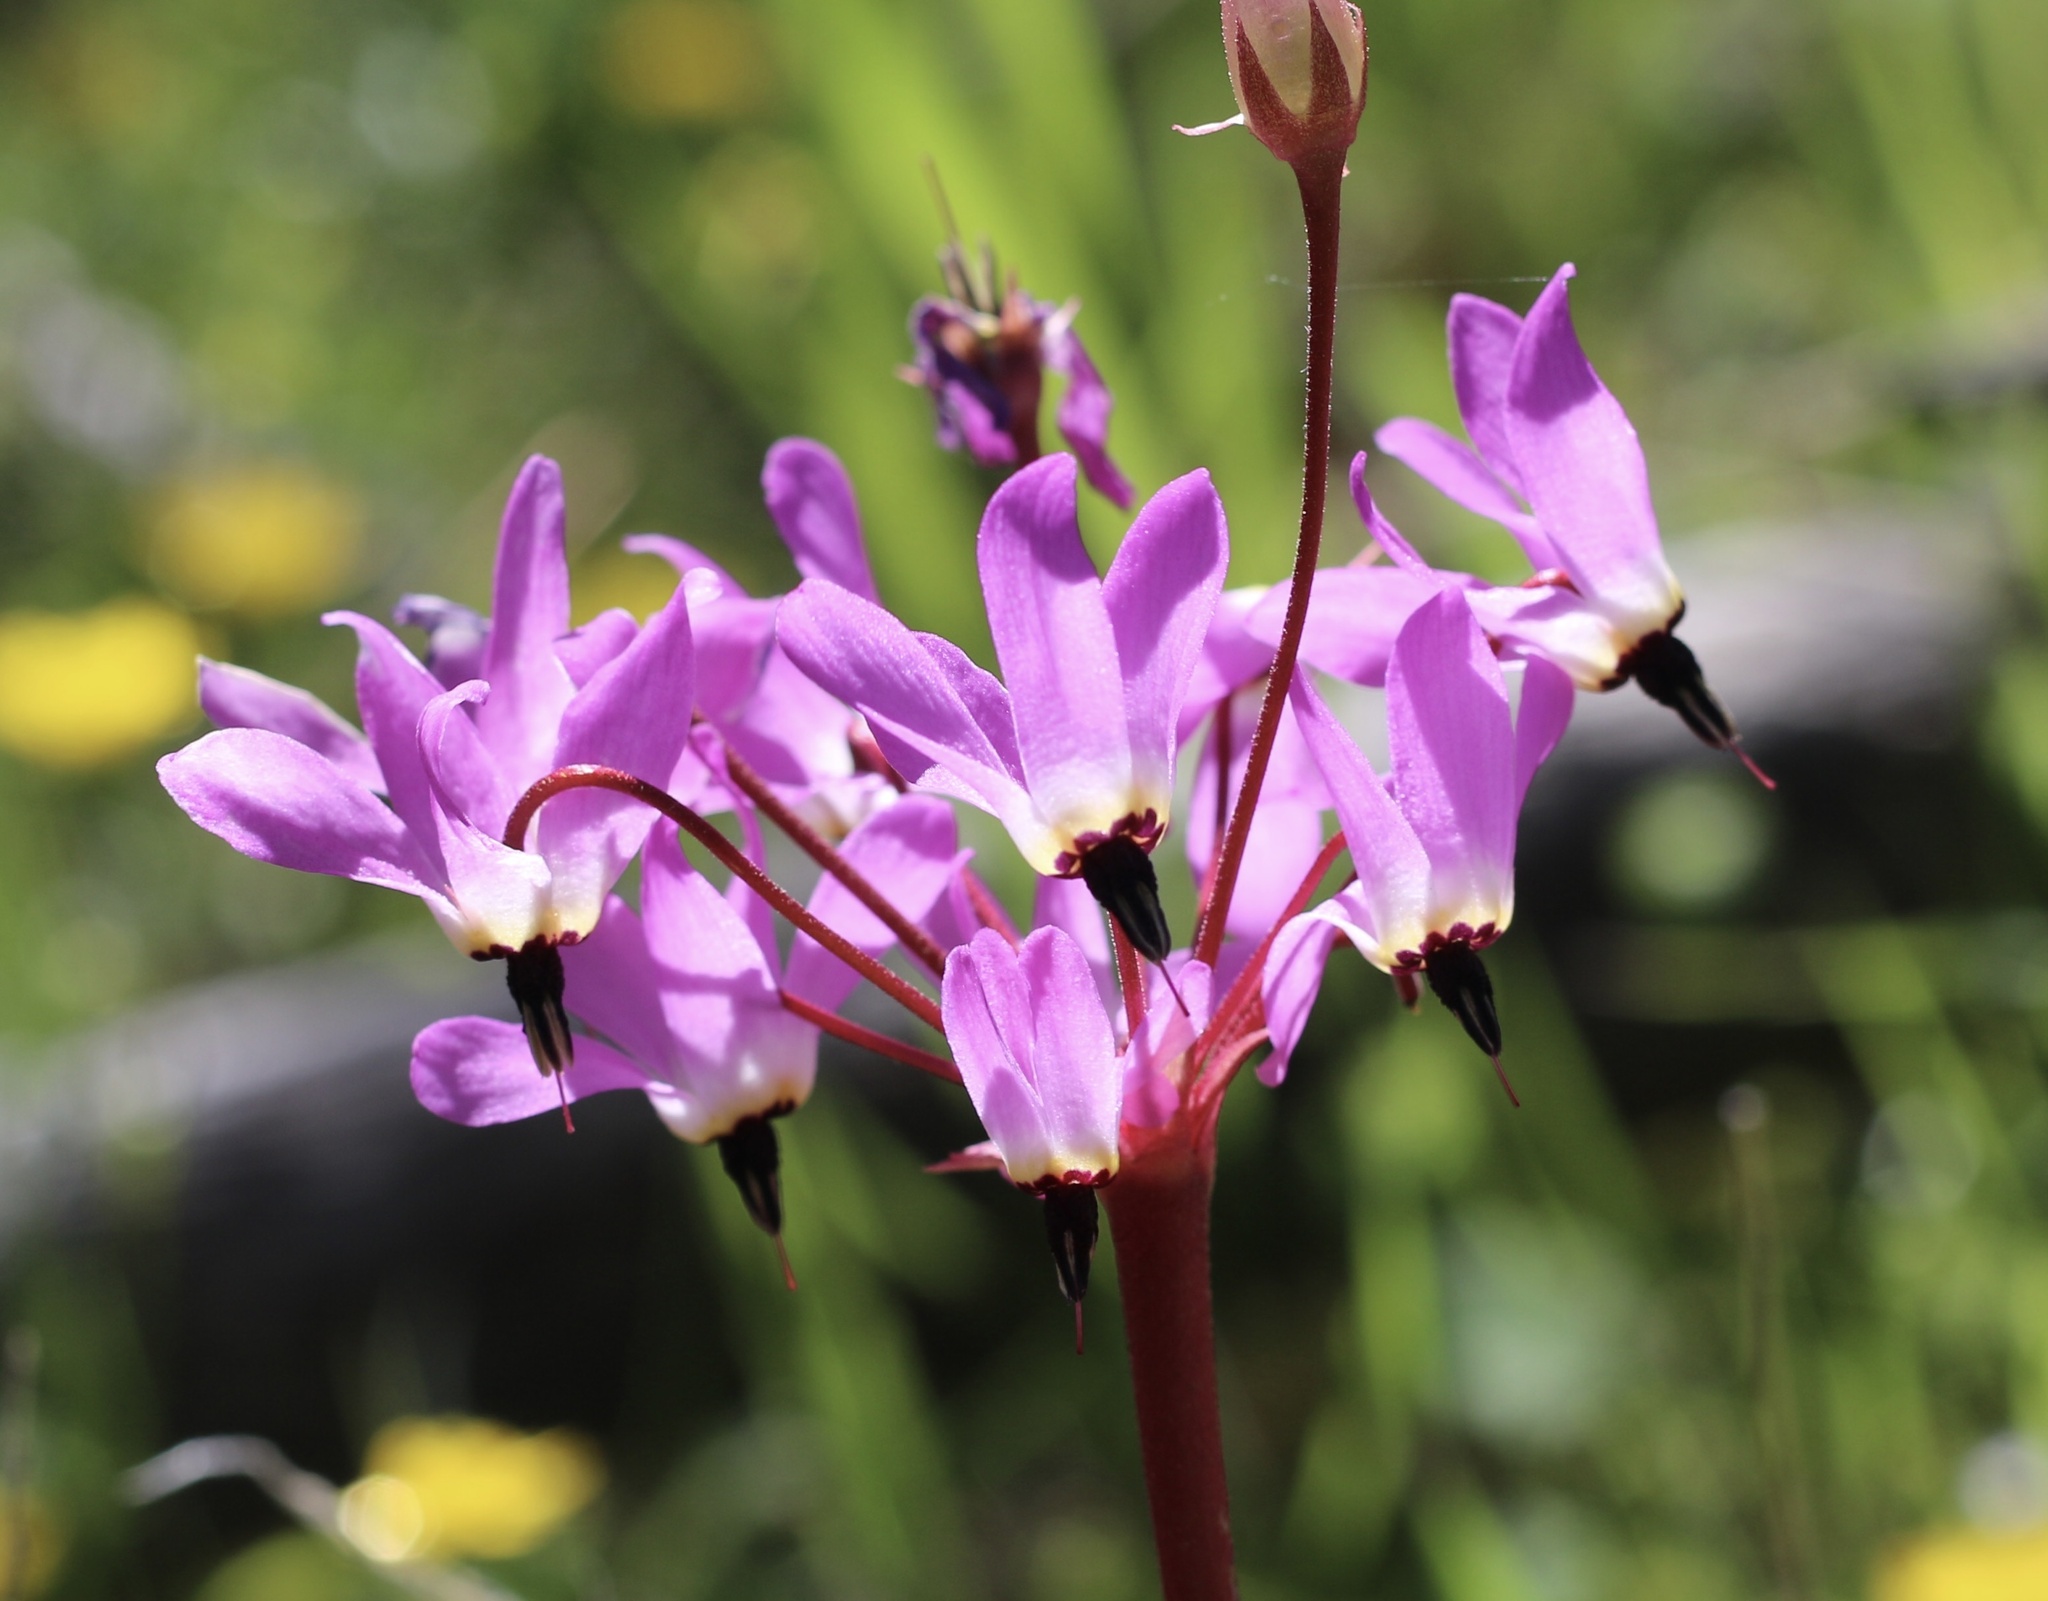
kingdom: Plantae
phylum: Tracheophyta
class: Magnoliopsida
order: Ericales
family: Primulaceae
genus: Dodecatheon
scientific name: Dodecatheon hendersonii
